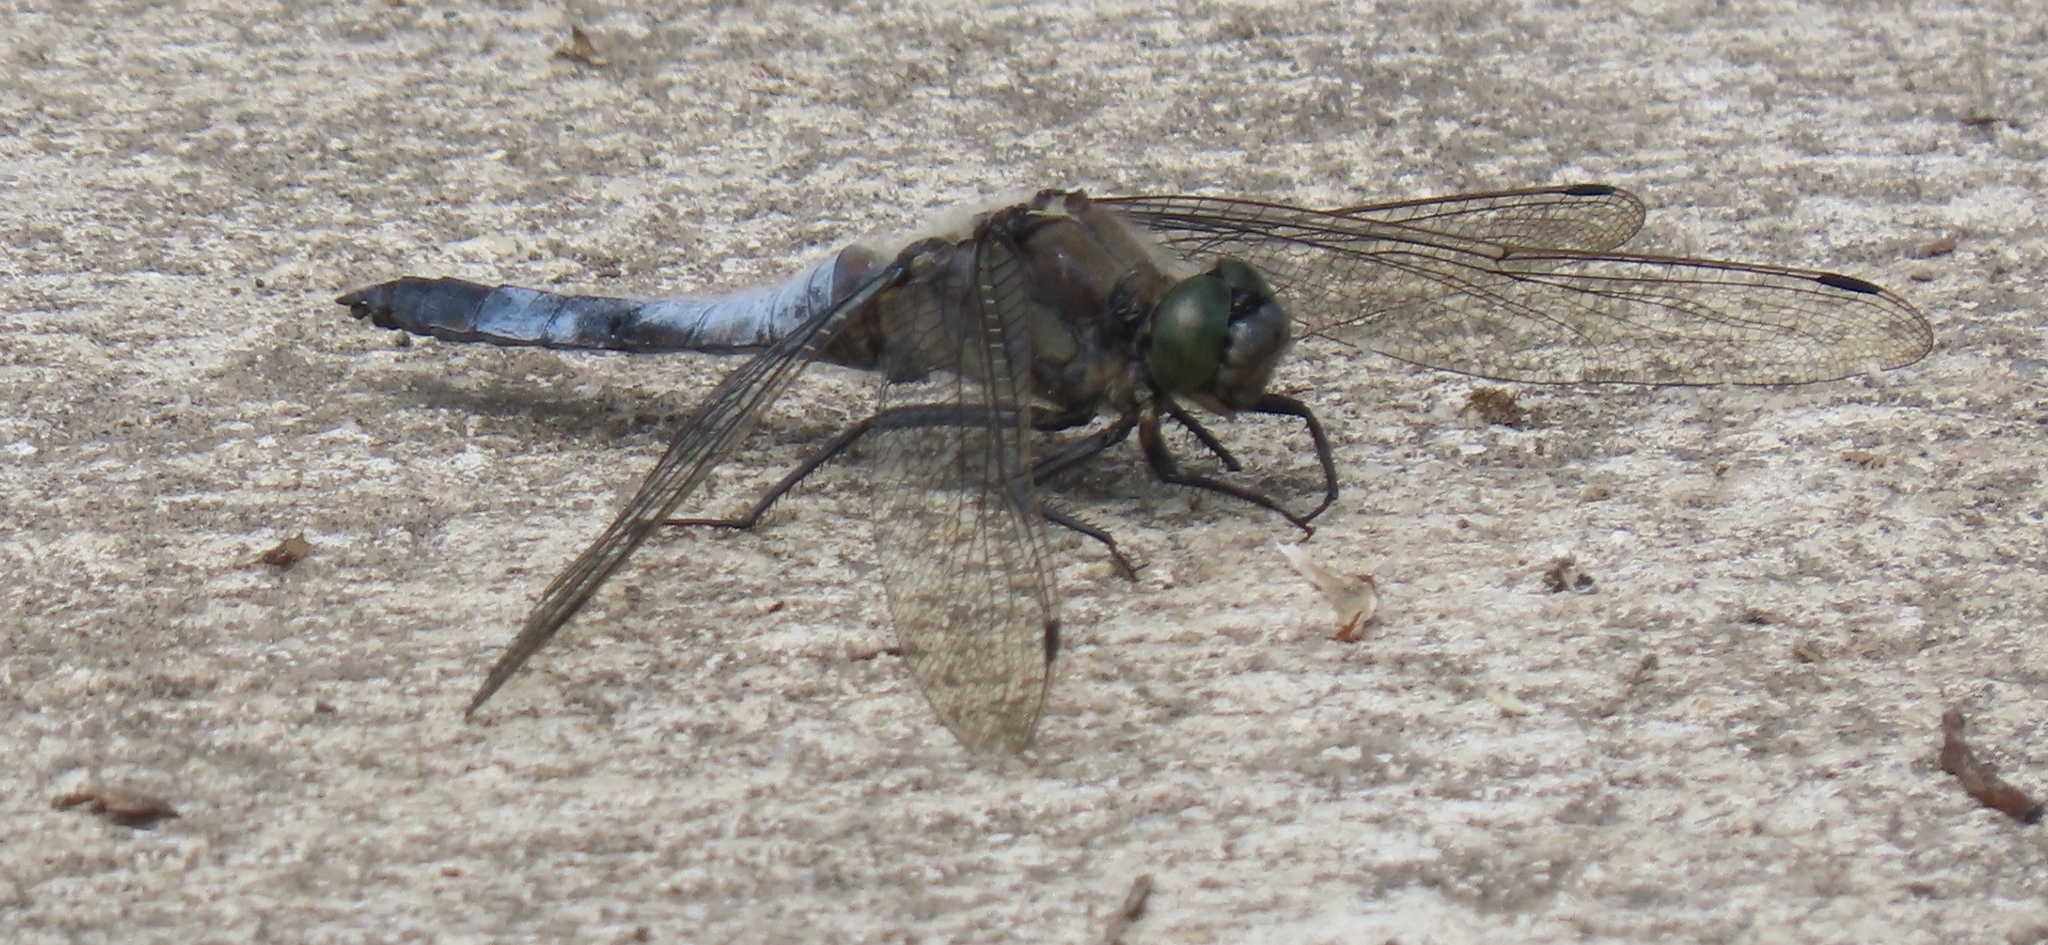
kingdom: Animalia
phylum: Arthropoda
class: Insecta
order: Odonata
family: Libellulidae
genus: Orthetrum
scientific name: Orthetrum cancellatum
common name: Black-tailed skimmer
